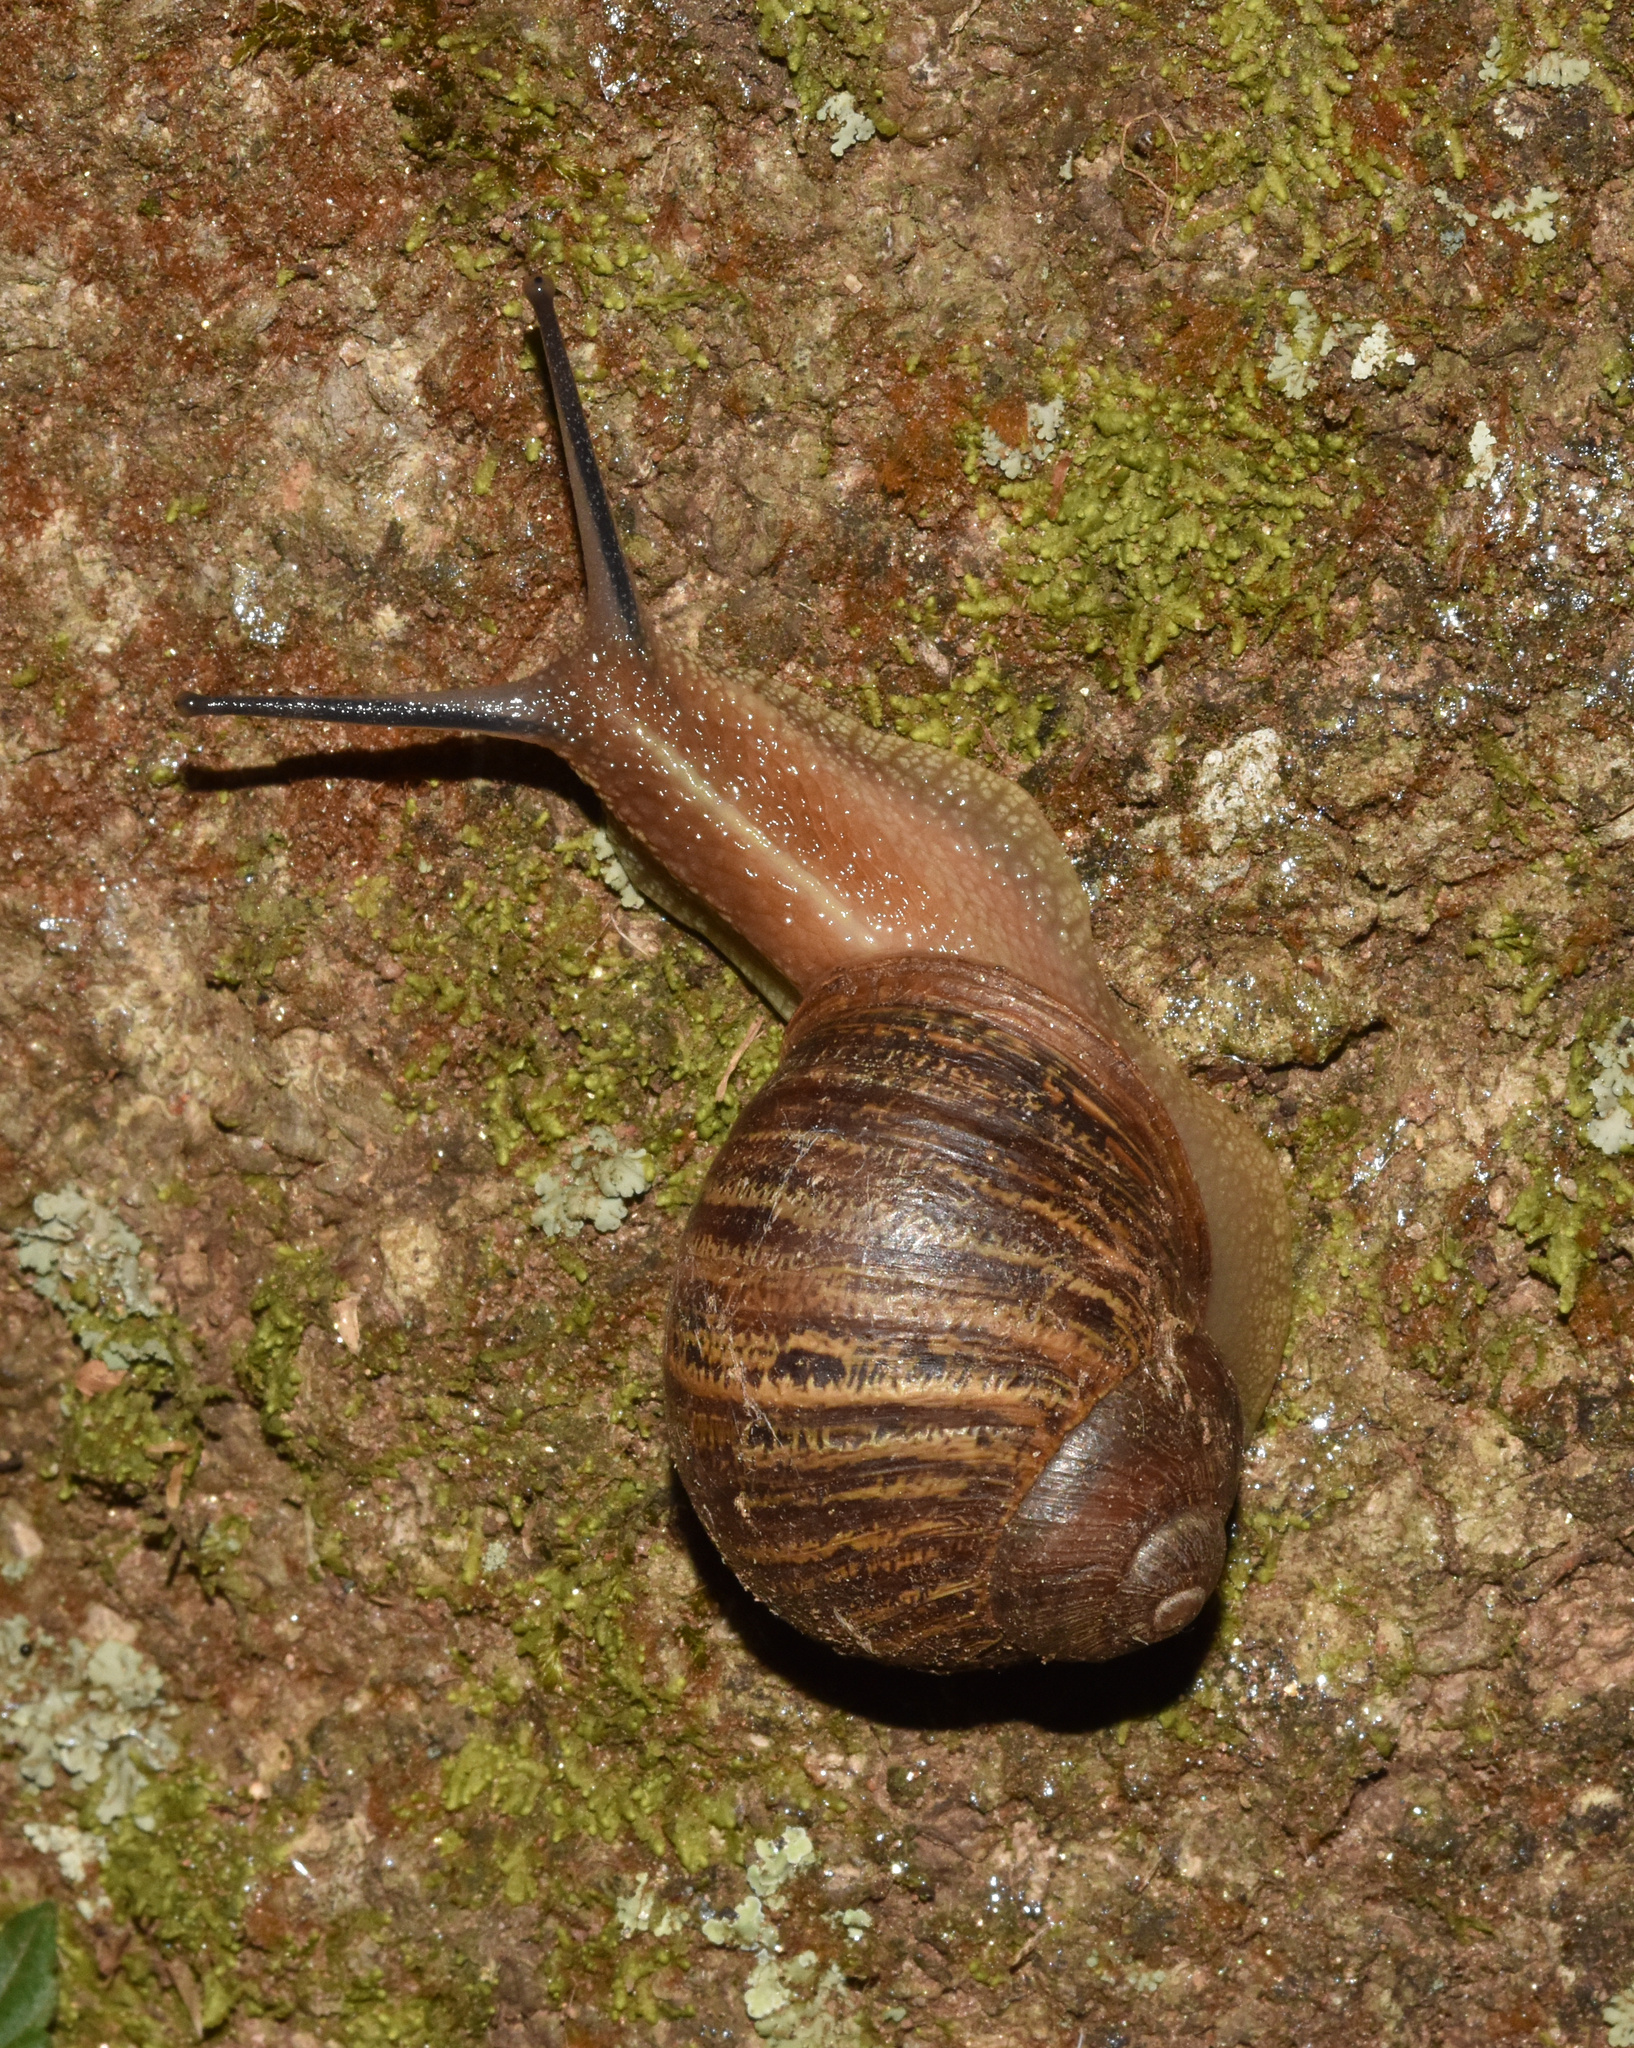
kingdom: Animalia
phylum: Mollusca
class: Gastropoda
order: Stylommatophora
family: Helicidae
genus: Cornu
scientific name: Cornu aspersum
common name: Brown garden snail
